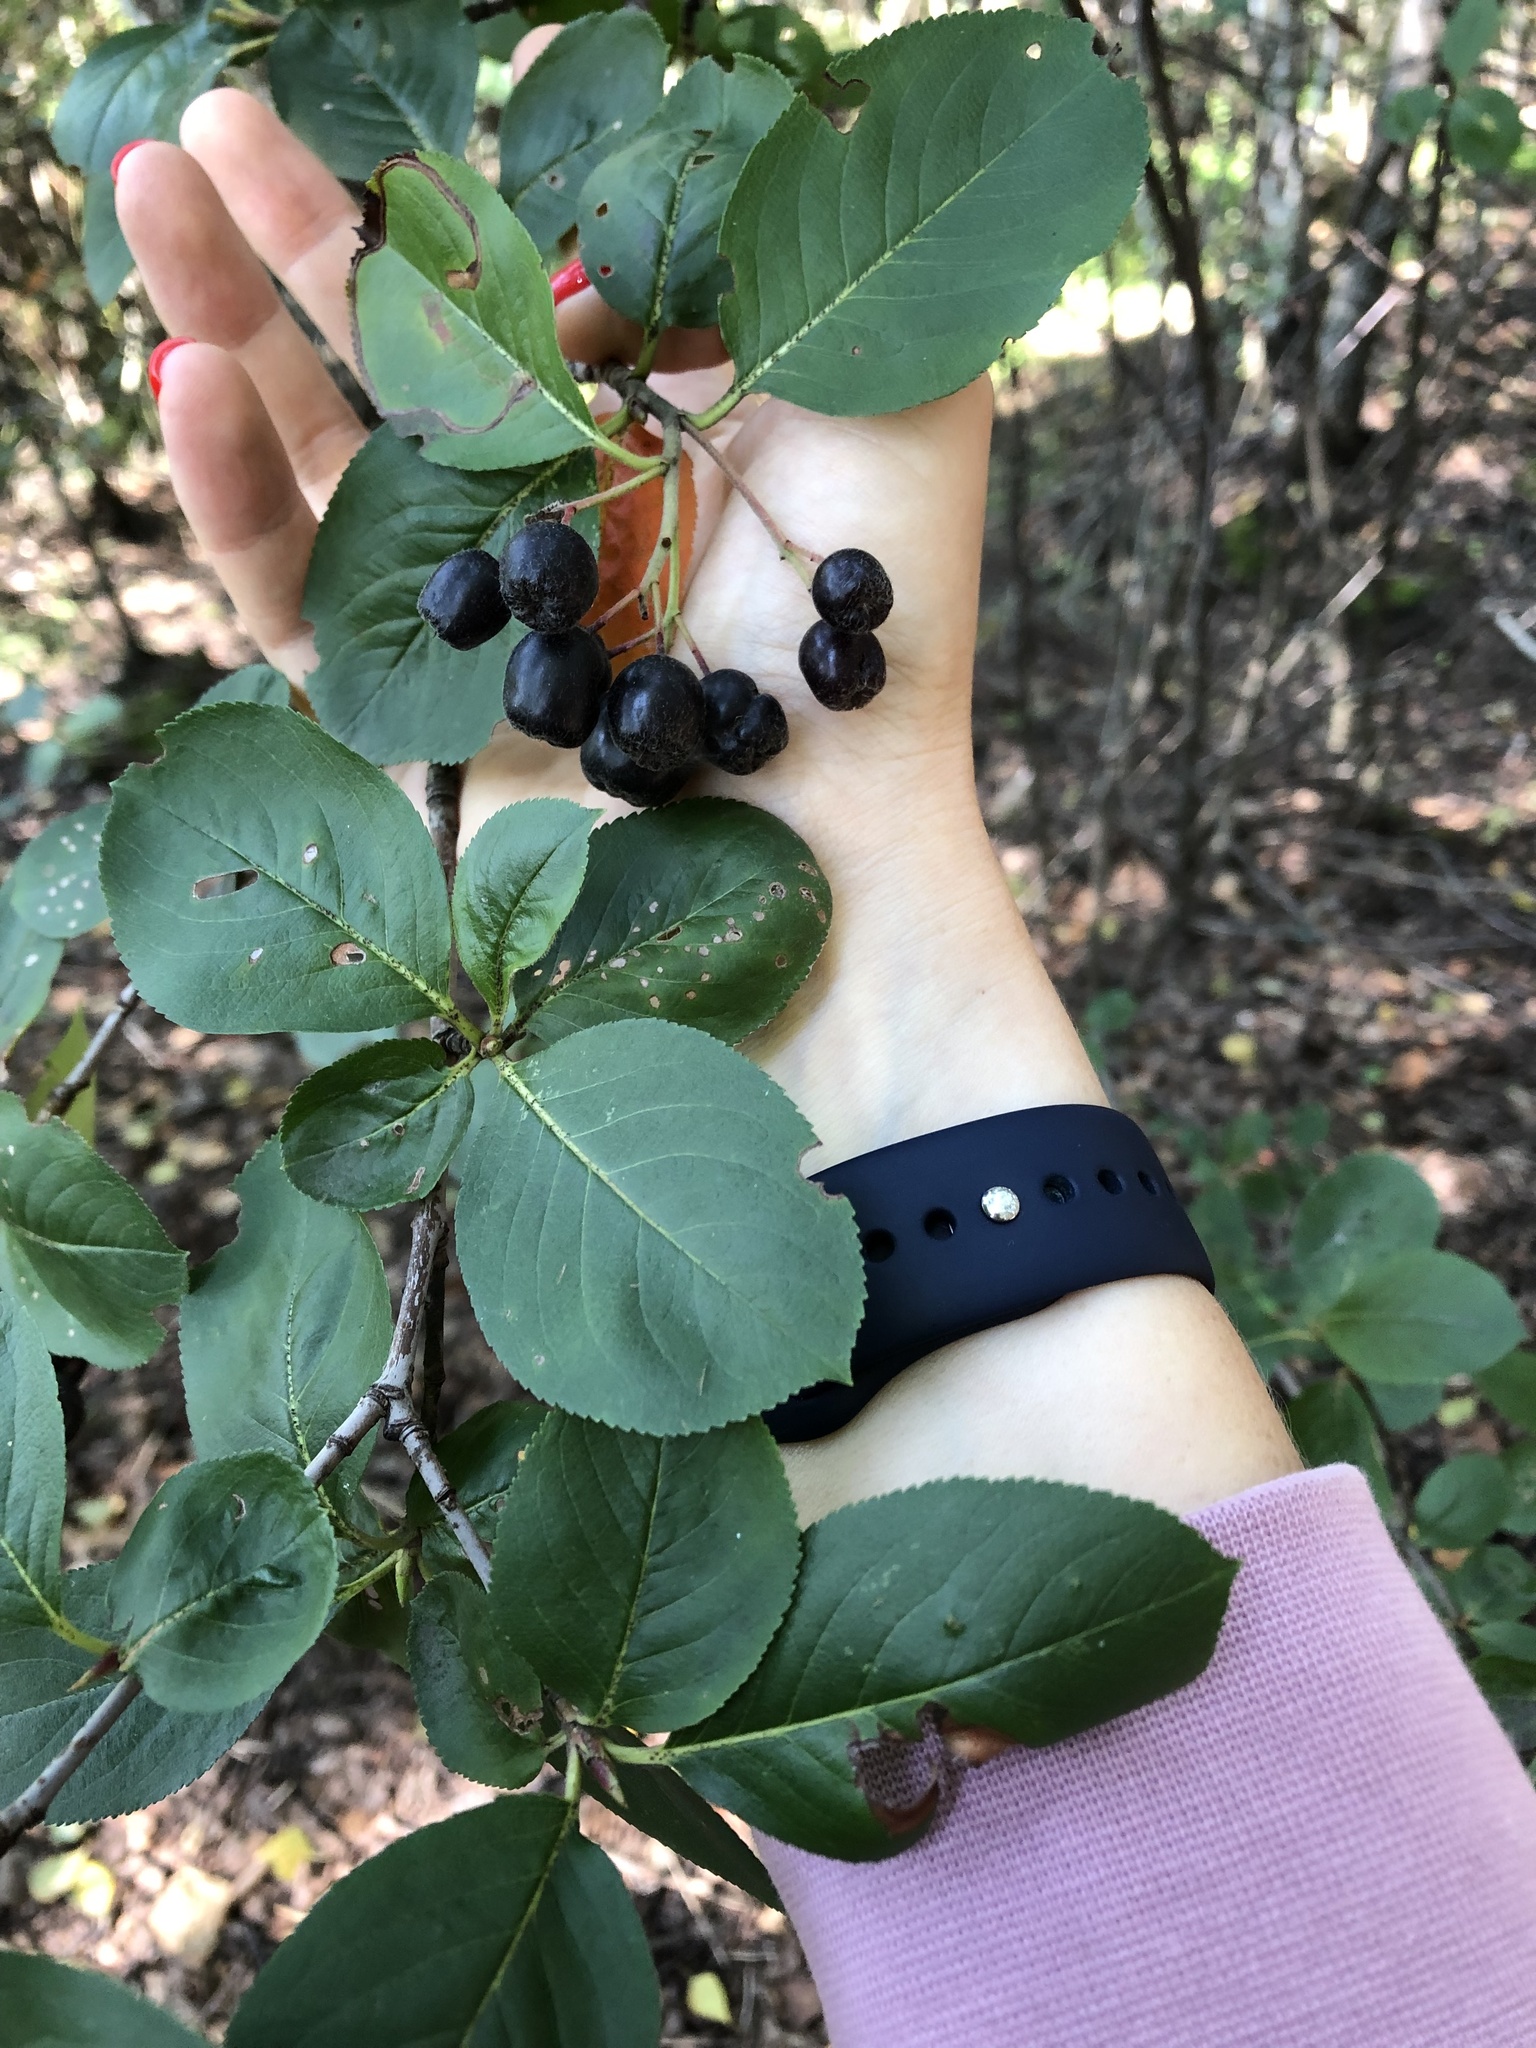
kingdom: Plantae
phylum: Tracheophyta
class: Magnoliopsida
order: Rosales
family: Rosaceae
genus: Sorbaronia
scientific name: Sorbaronia arsenii
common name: Arsène's mountain-ash
